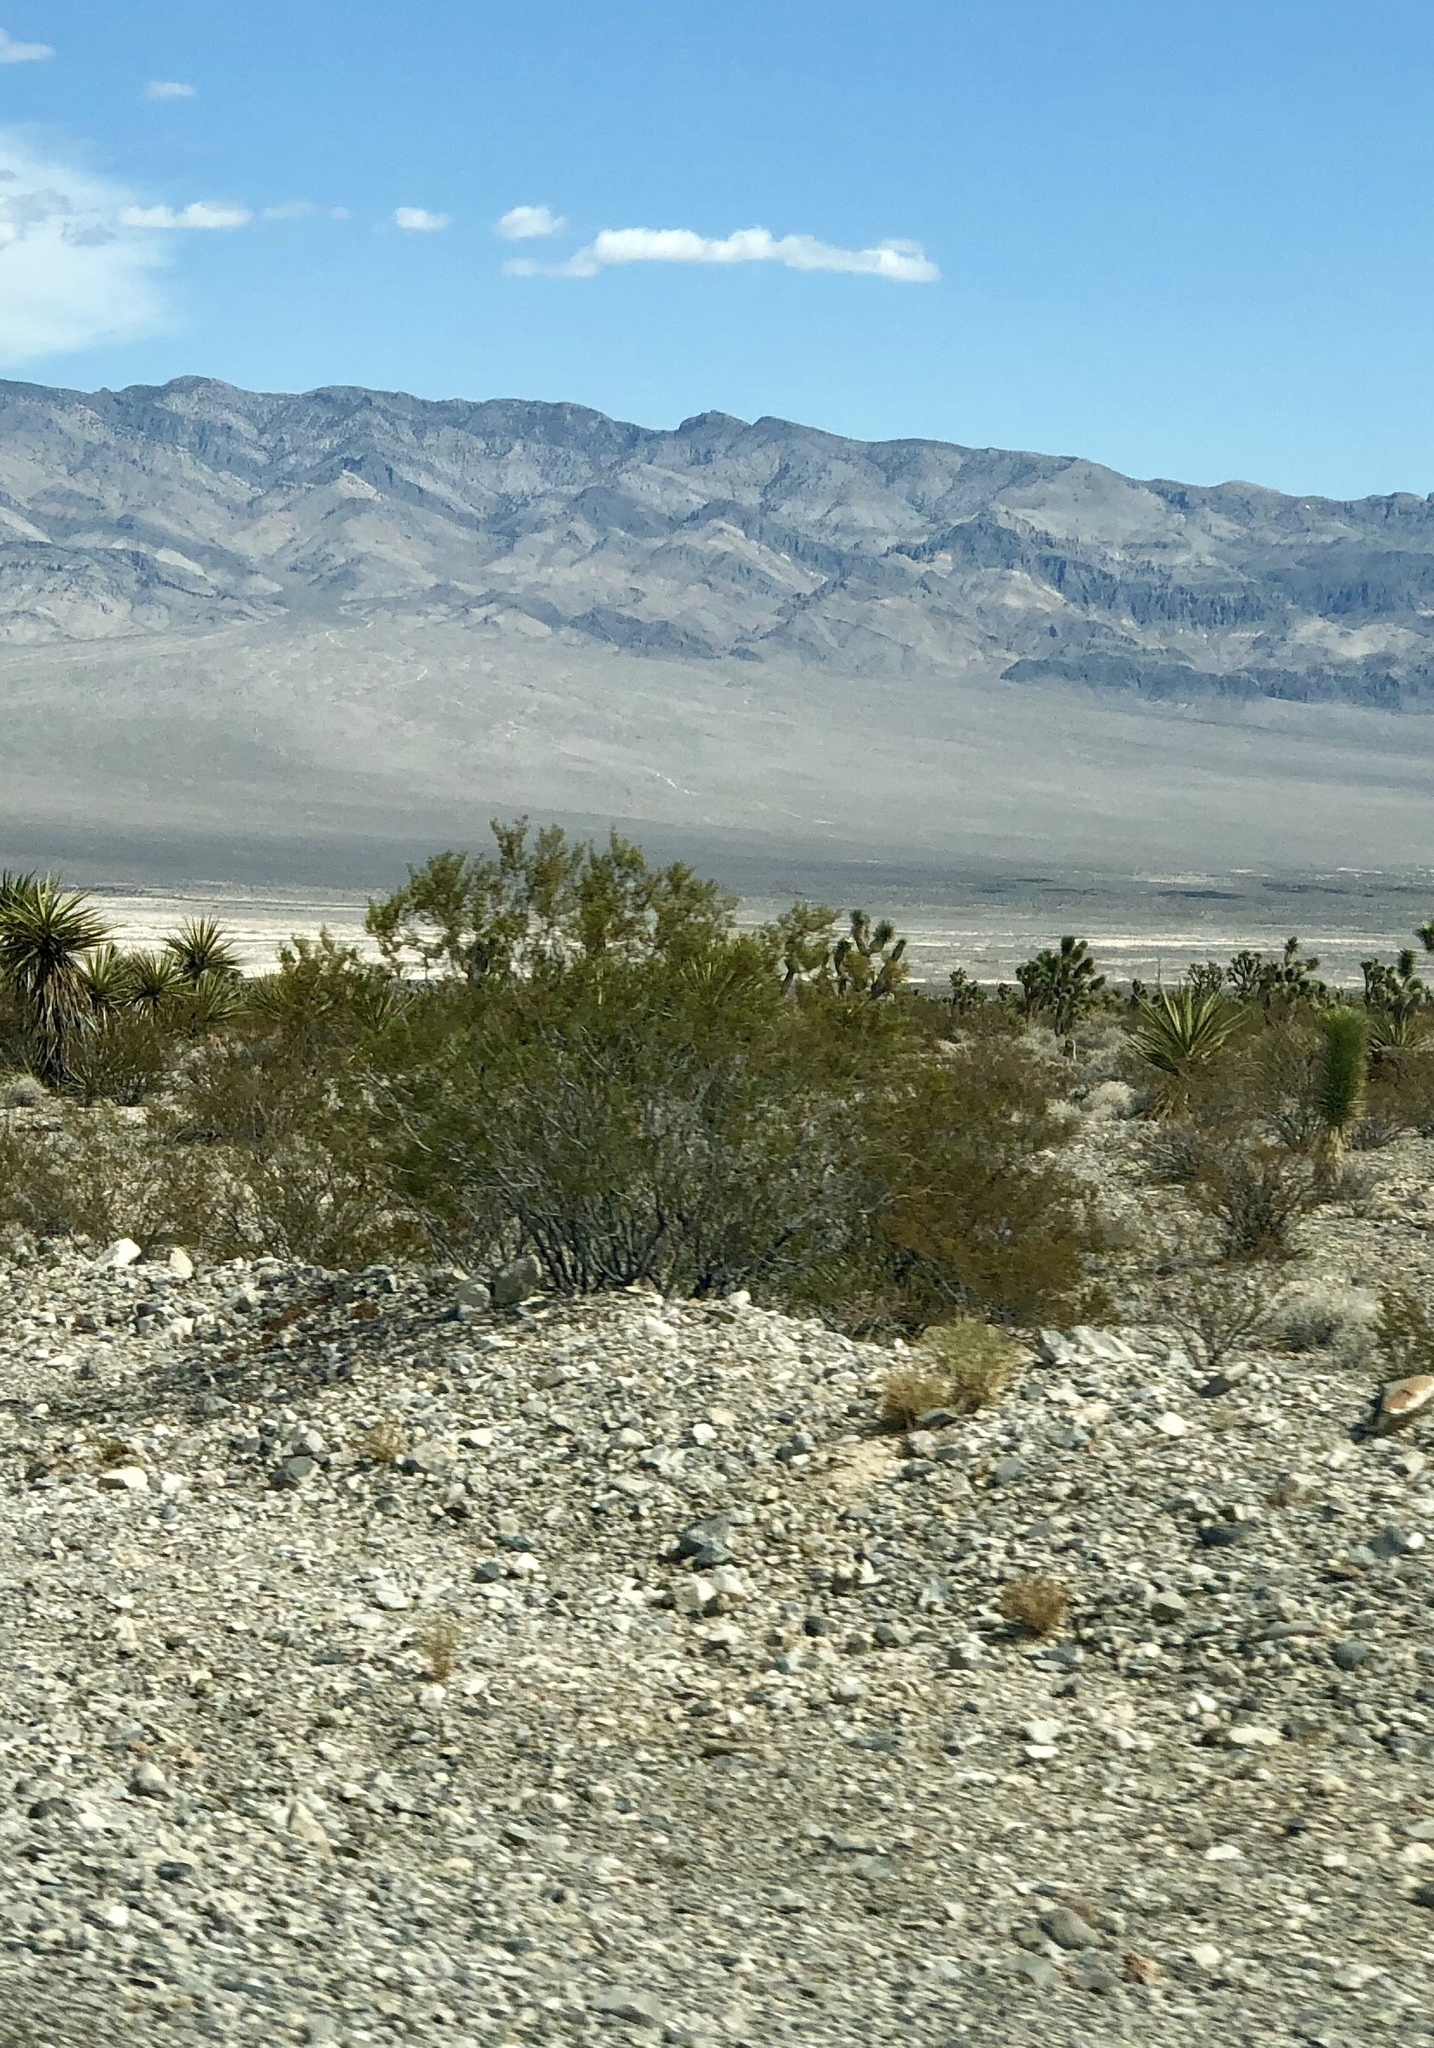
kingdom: Plantae
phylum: Tracheophyta
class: Magnoliopsida
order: Zygophyllales
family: Zygophyllaceae
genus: Larrea
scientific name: Larrea tridentata
